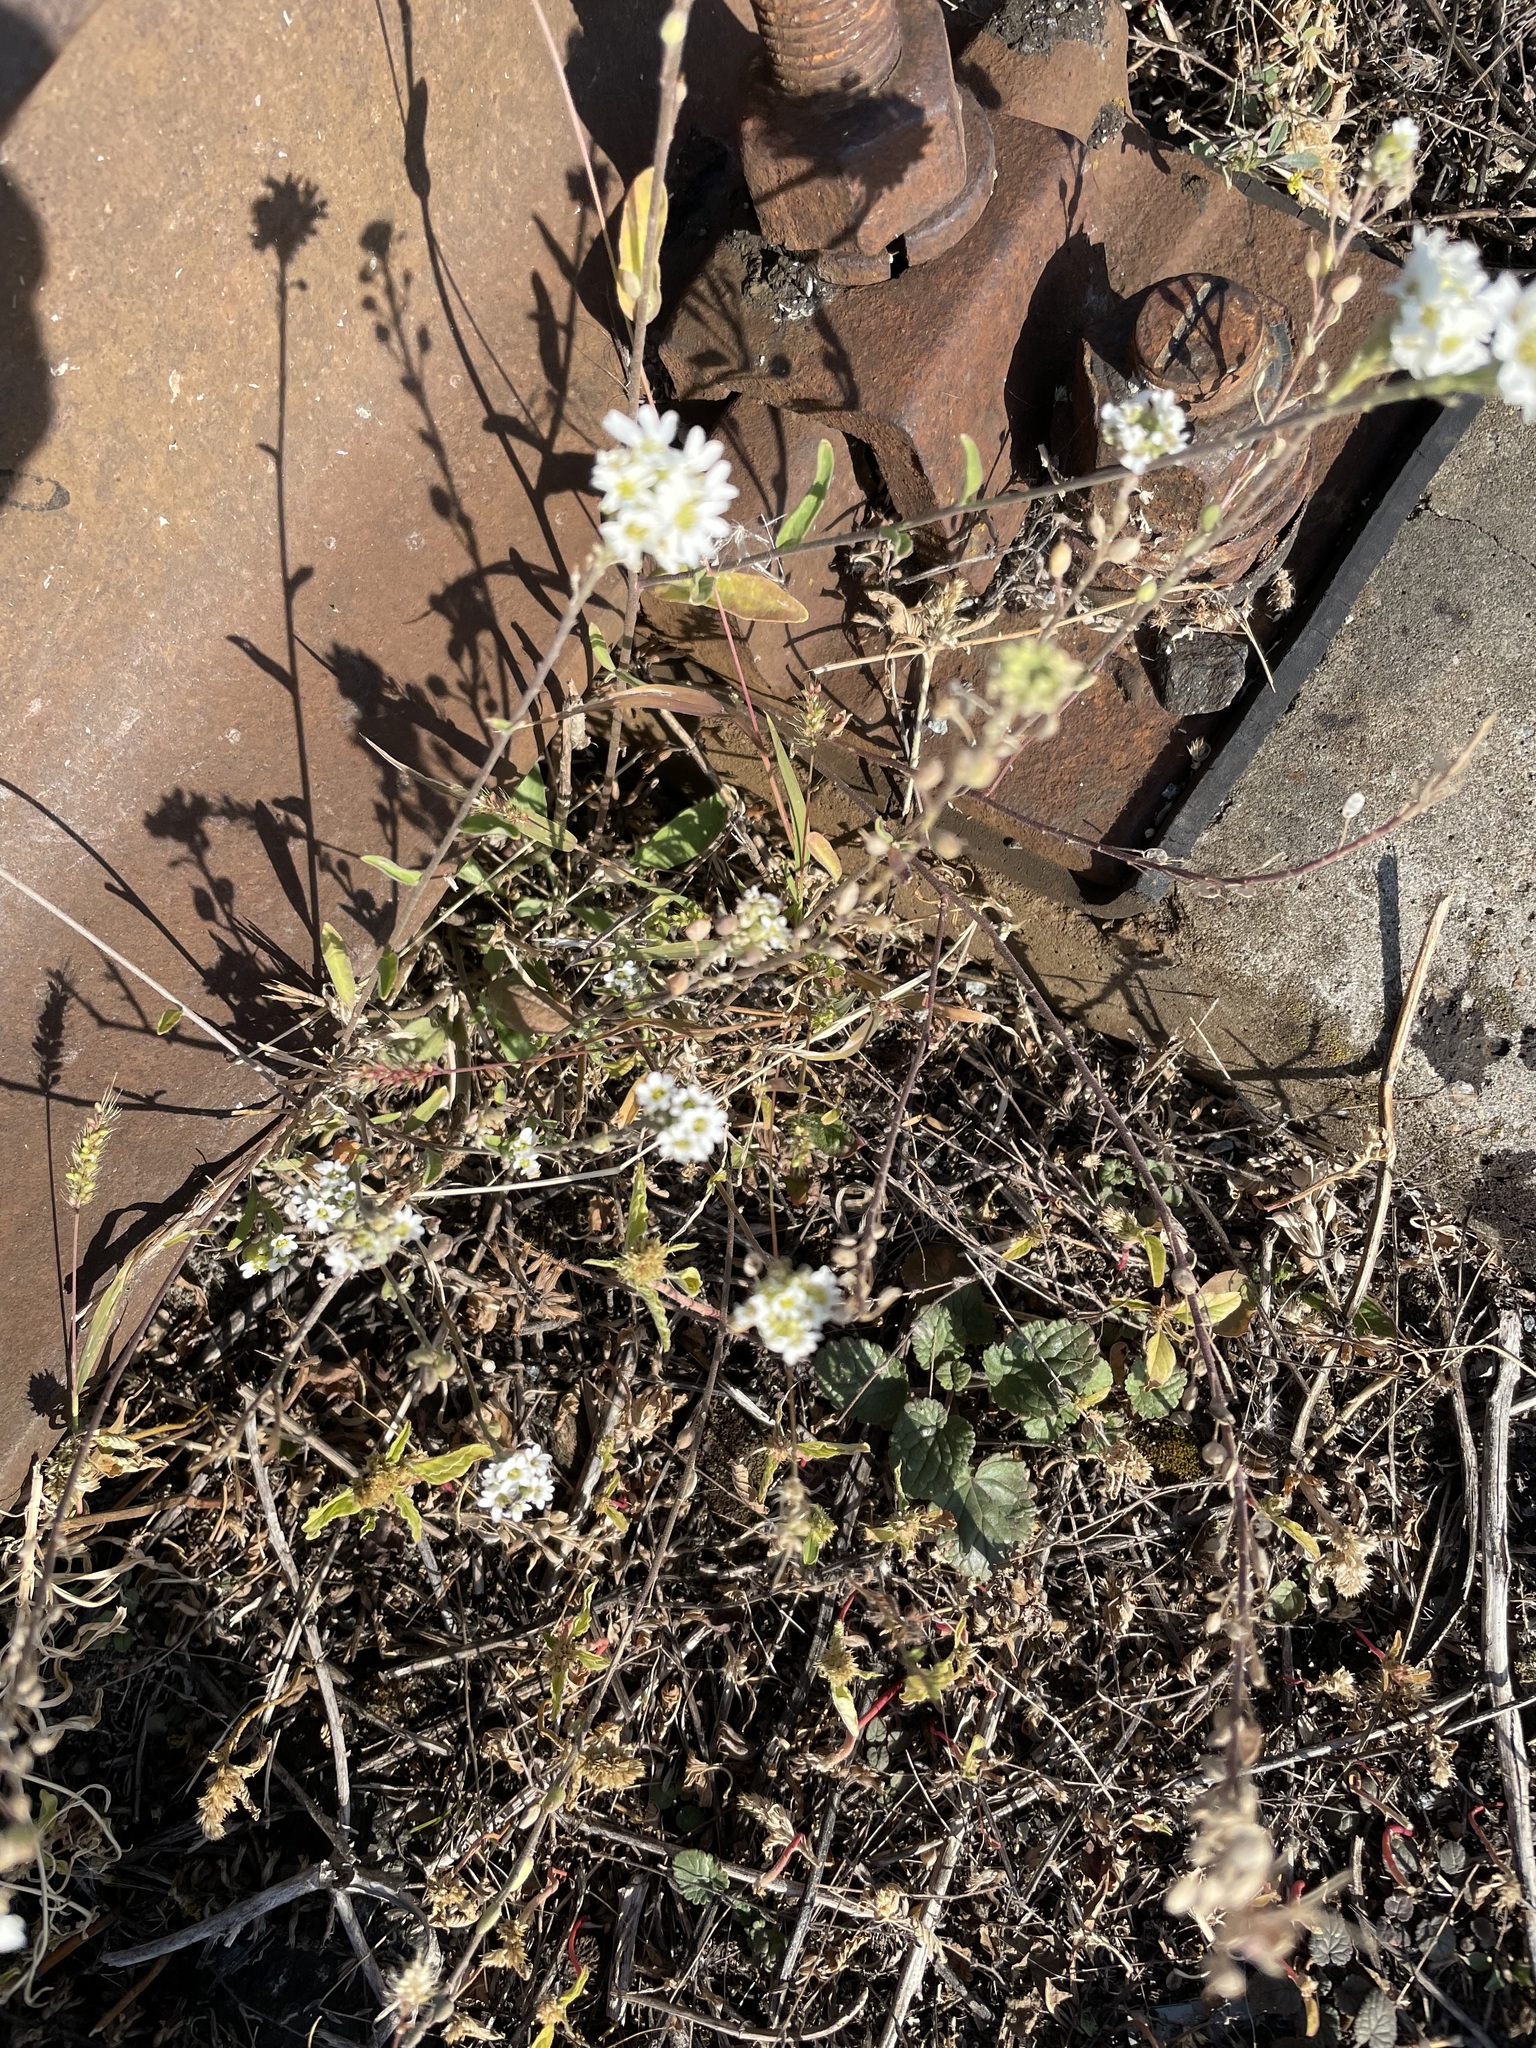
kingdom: Plantae
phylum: Tracheophyta
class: Magnoliopsida
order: Brassicales
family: Brassicaceae
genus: Berteroa
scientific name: Berteroa incana
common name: Hoary alison
